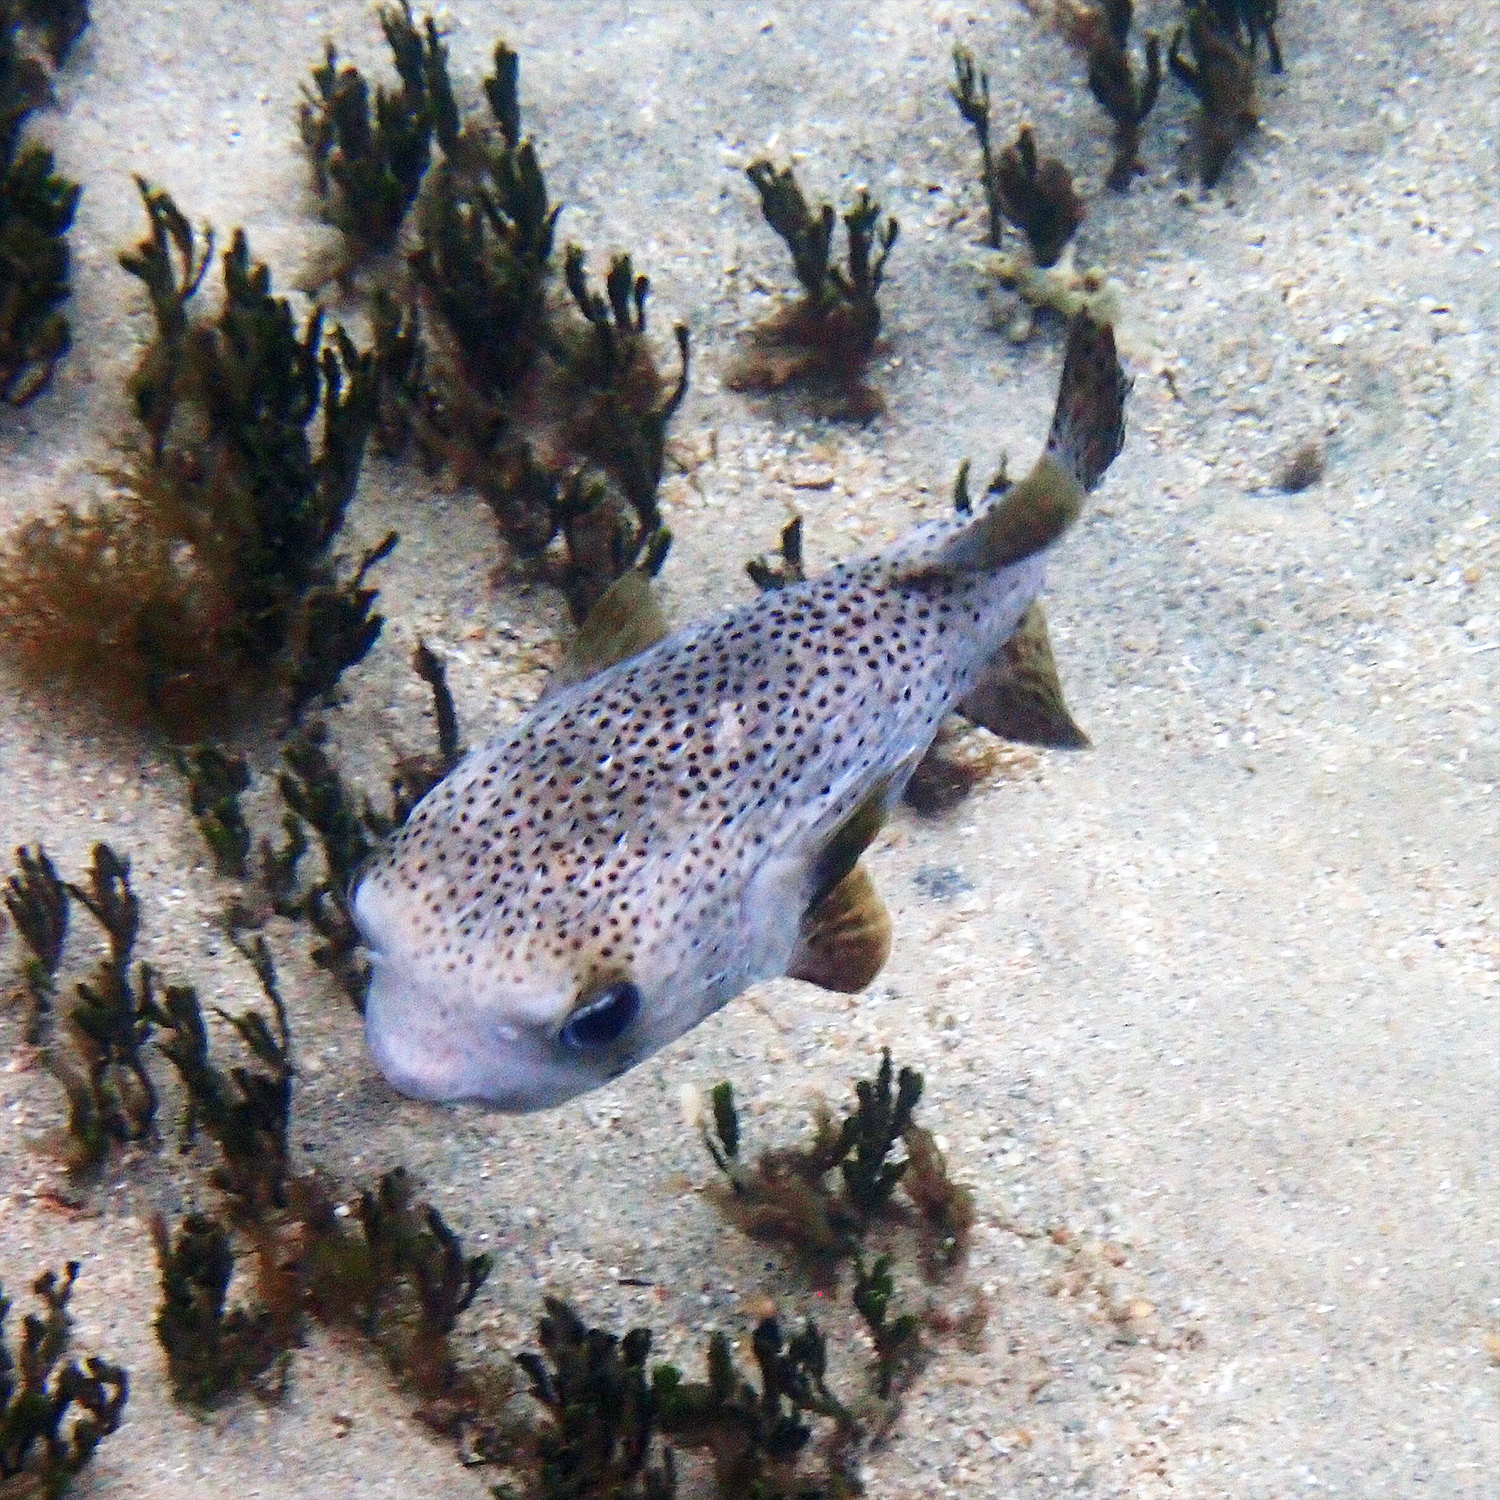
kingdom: Animalia
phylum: Chordata
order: Tetraodontiformes
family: Diodontidae
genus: Diodon
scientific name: Diodon hystrix
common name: Giant porcupinefish
